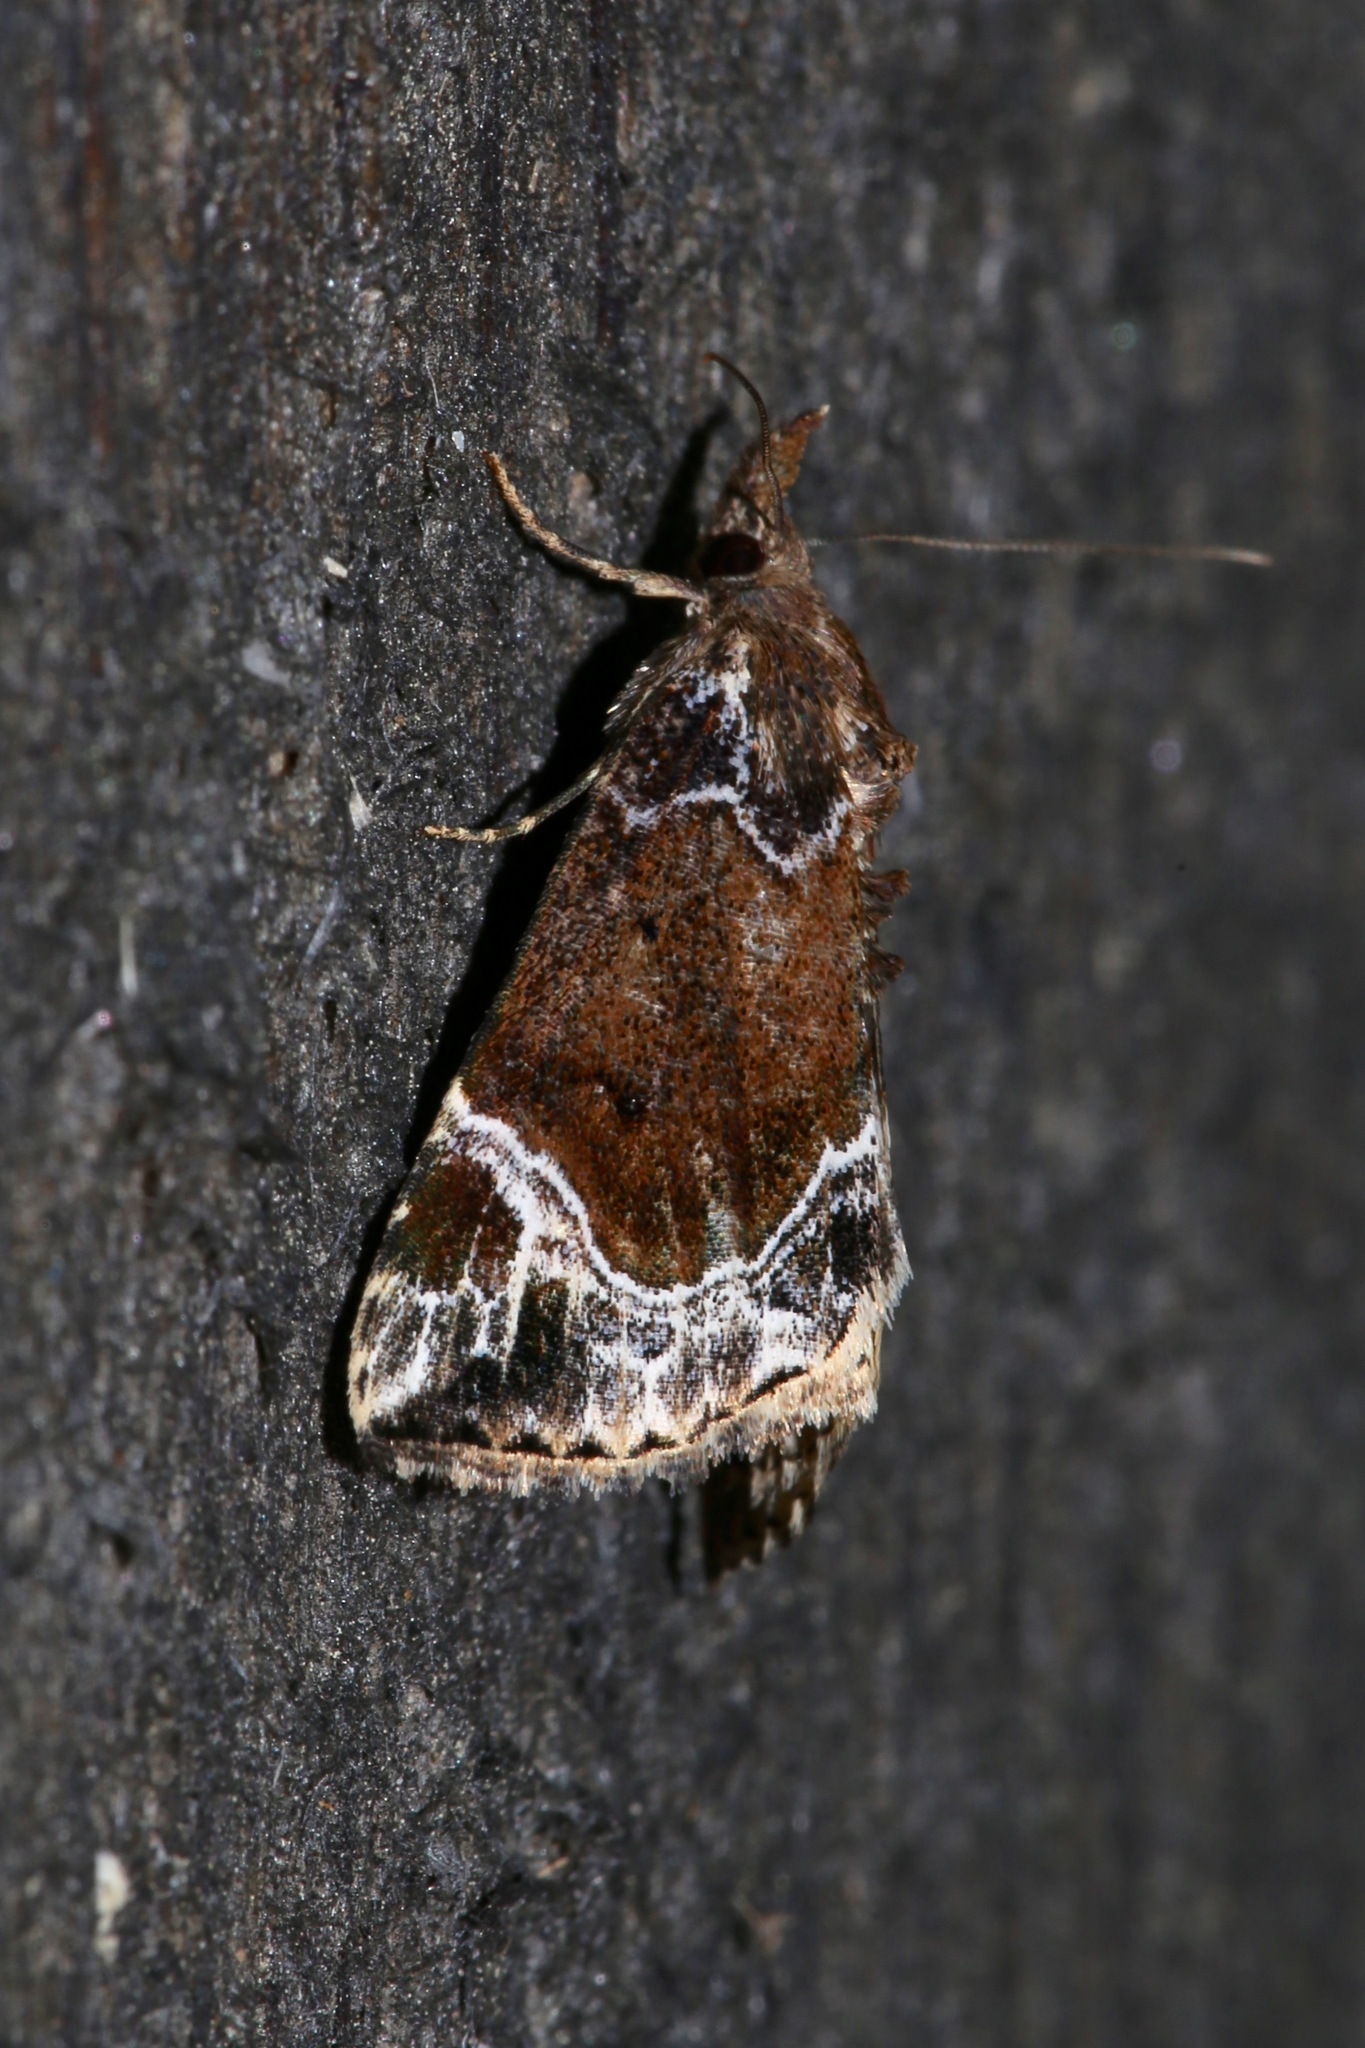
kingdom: Animalia
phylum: Arthropoda
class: Insecta
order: Lepidoptera
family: Erebidae
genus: Hypena
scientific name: Hypena abalienalis
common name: White-lined snout
